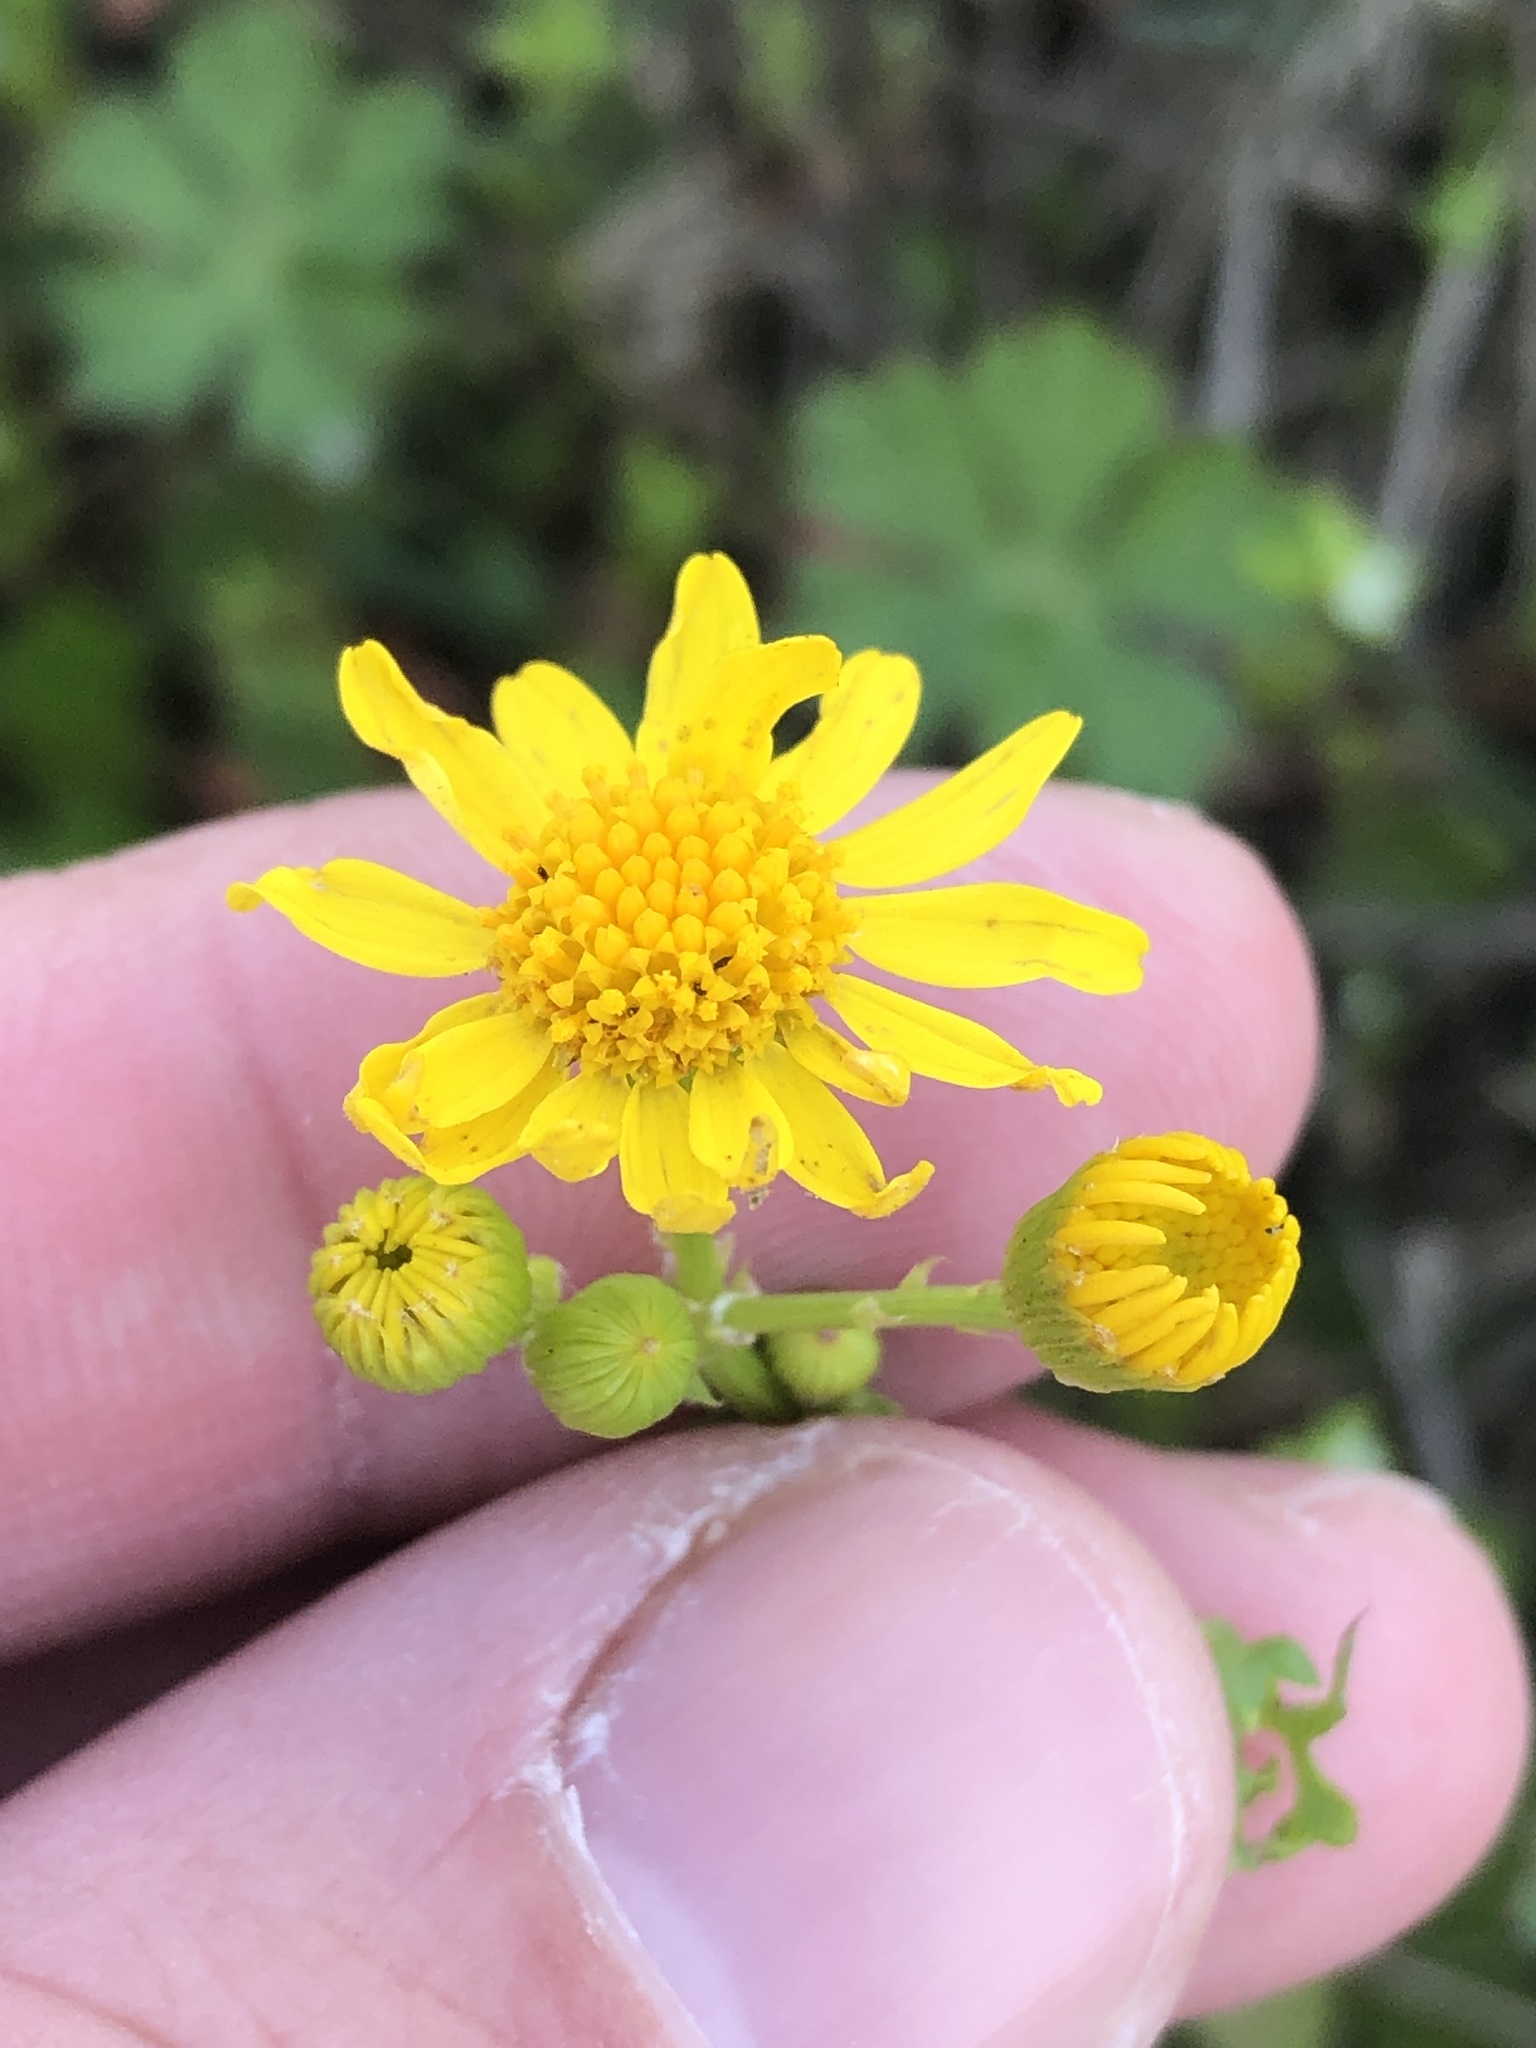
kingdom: Plantae
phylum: Tracheophyta
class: Magnoliopsida
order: Asterales
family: Asteraceae
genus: Packera
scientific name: Packera tampicana
